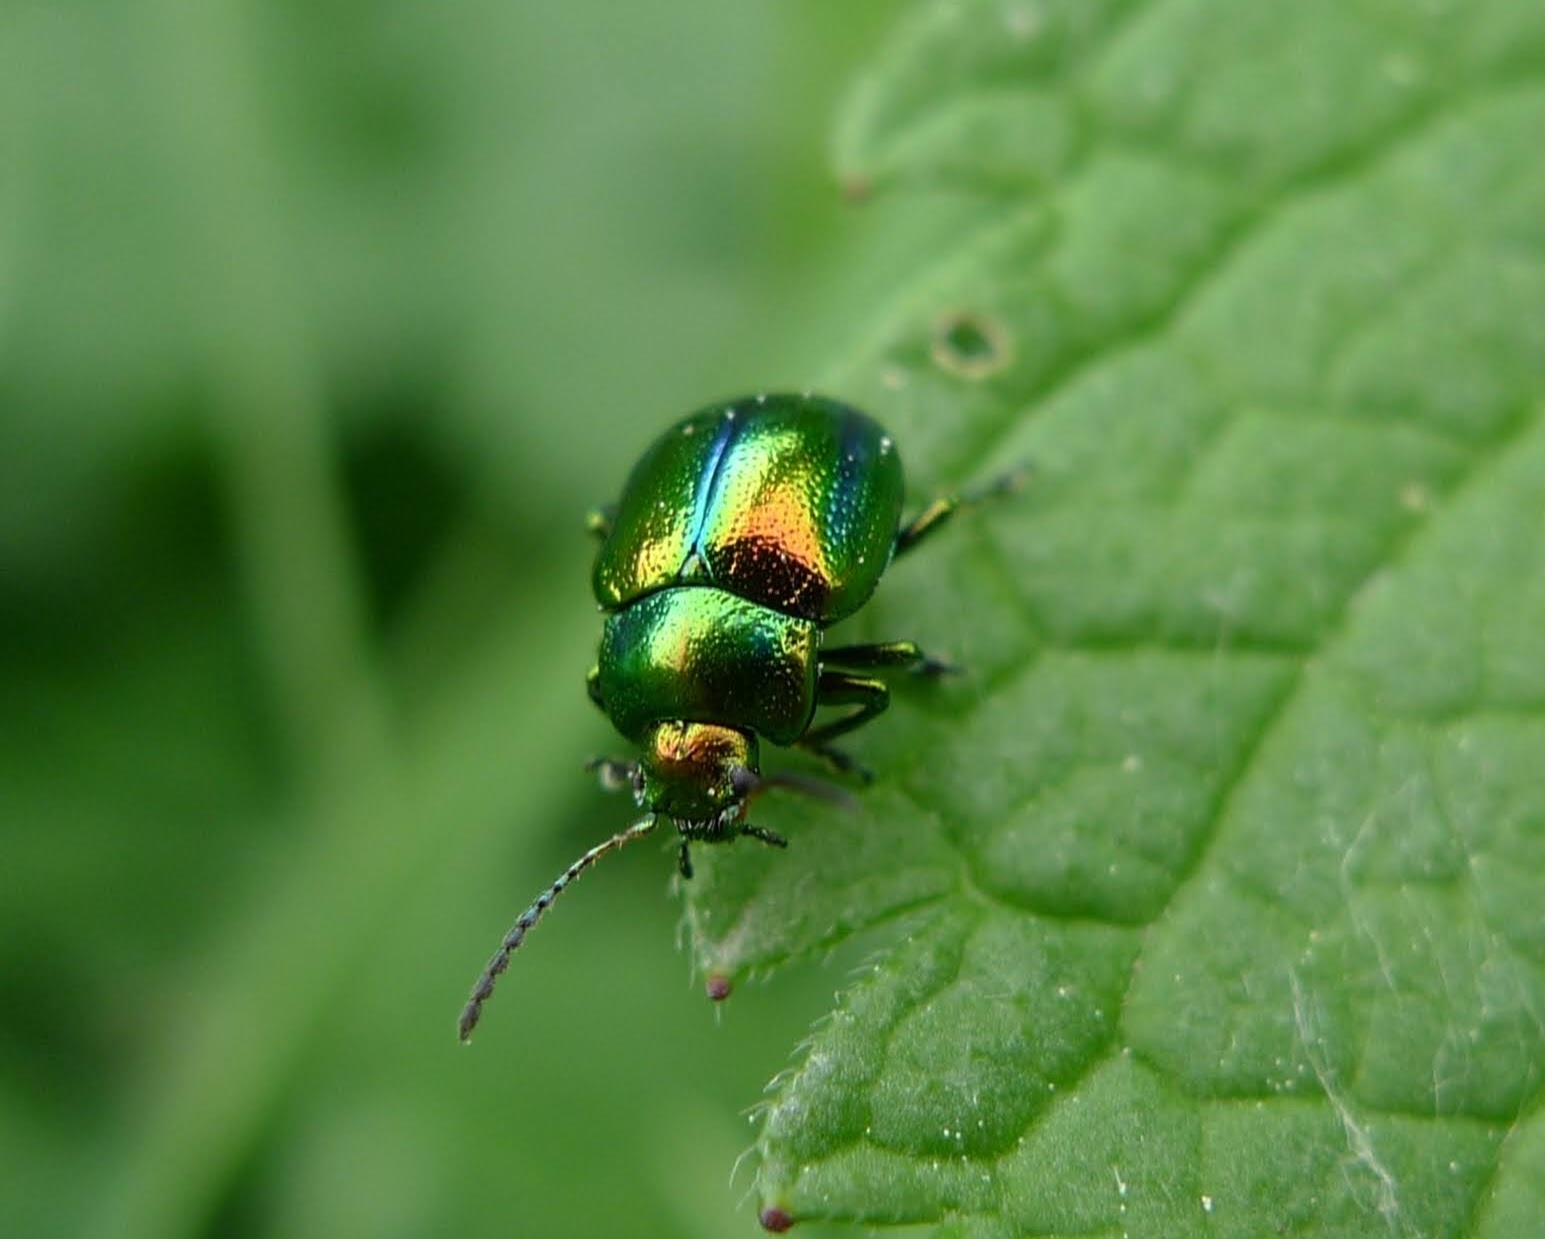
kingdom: Animalia
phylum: Arthropoda
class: Insecta
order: Coleoptera
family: Chrysomelidae
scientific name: Chrysomelidae
